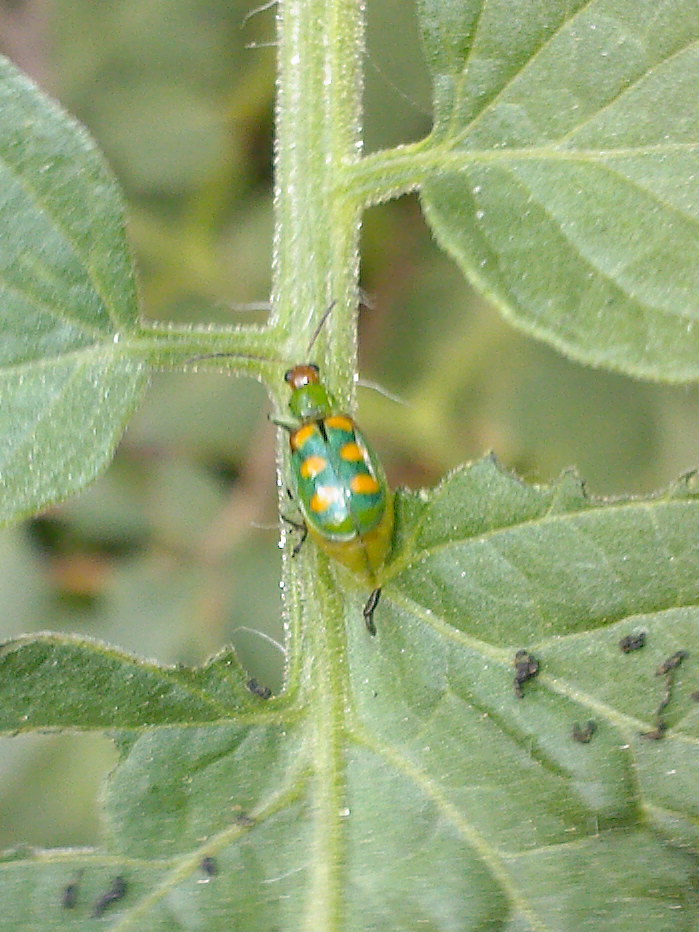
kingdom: Animalia
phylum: Arthropoda
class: Insecta
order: Coleoptera
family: Chrysomelidae
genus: Diabrotica
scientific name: Diabrotica speciosa
